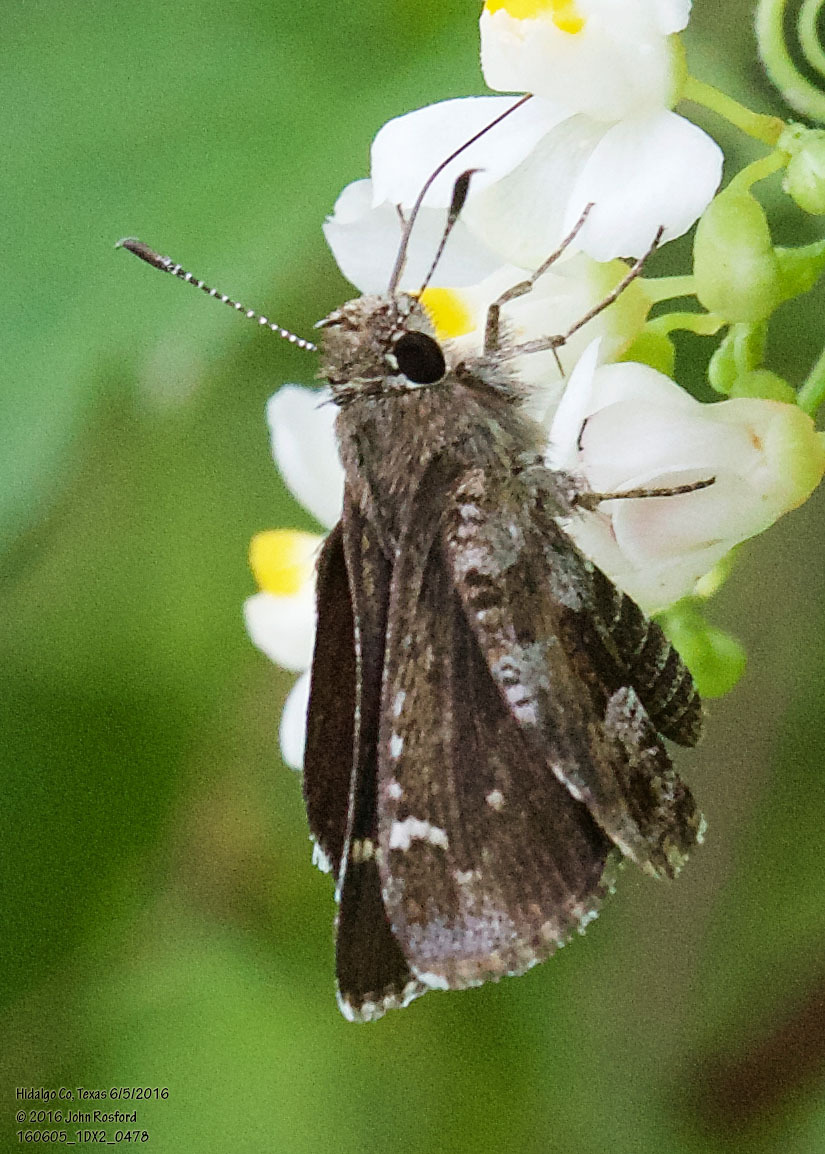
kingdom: Animalia
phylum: Arthropoda
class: Insecta
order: Lepidoptera
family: Hesperiidae
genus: Mastor
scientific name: Mastor nysa
